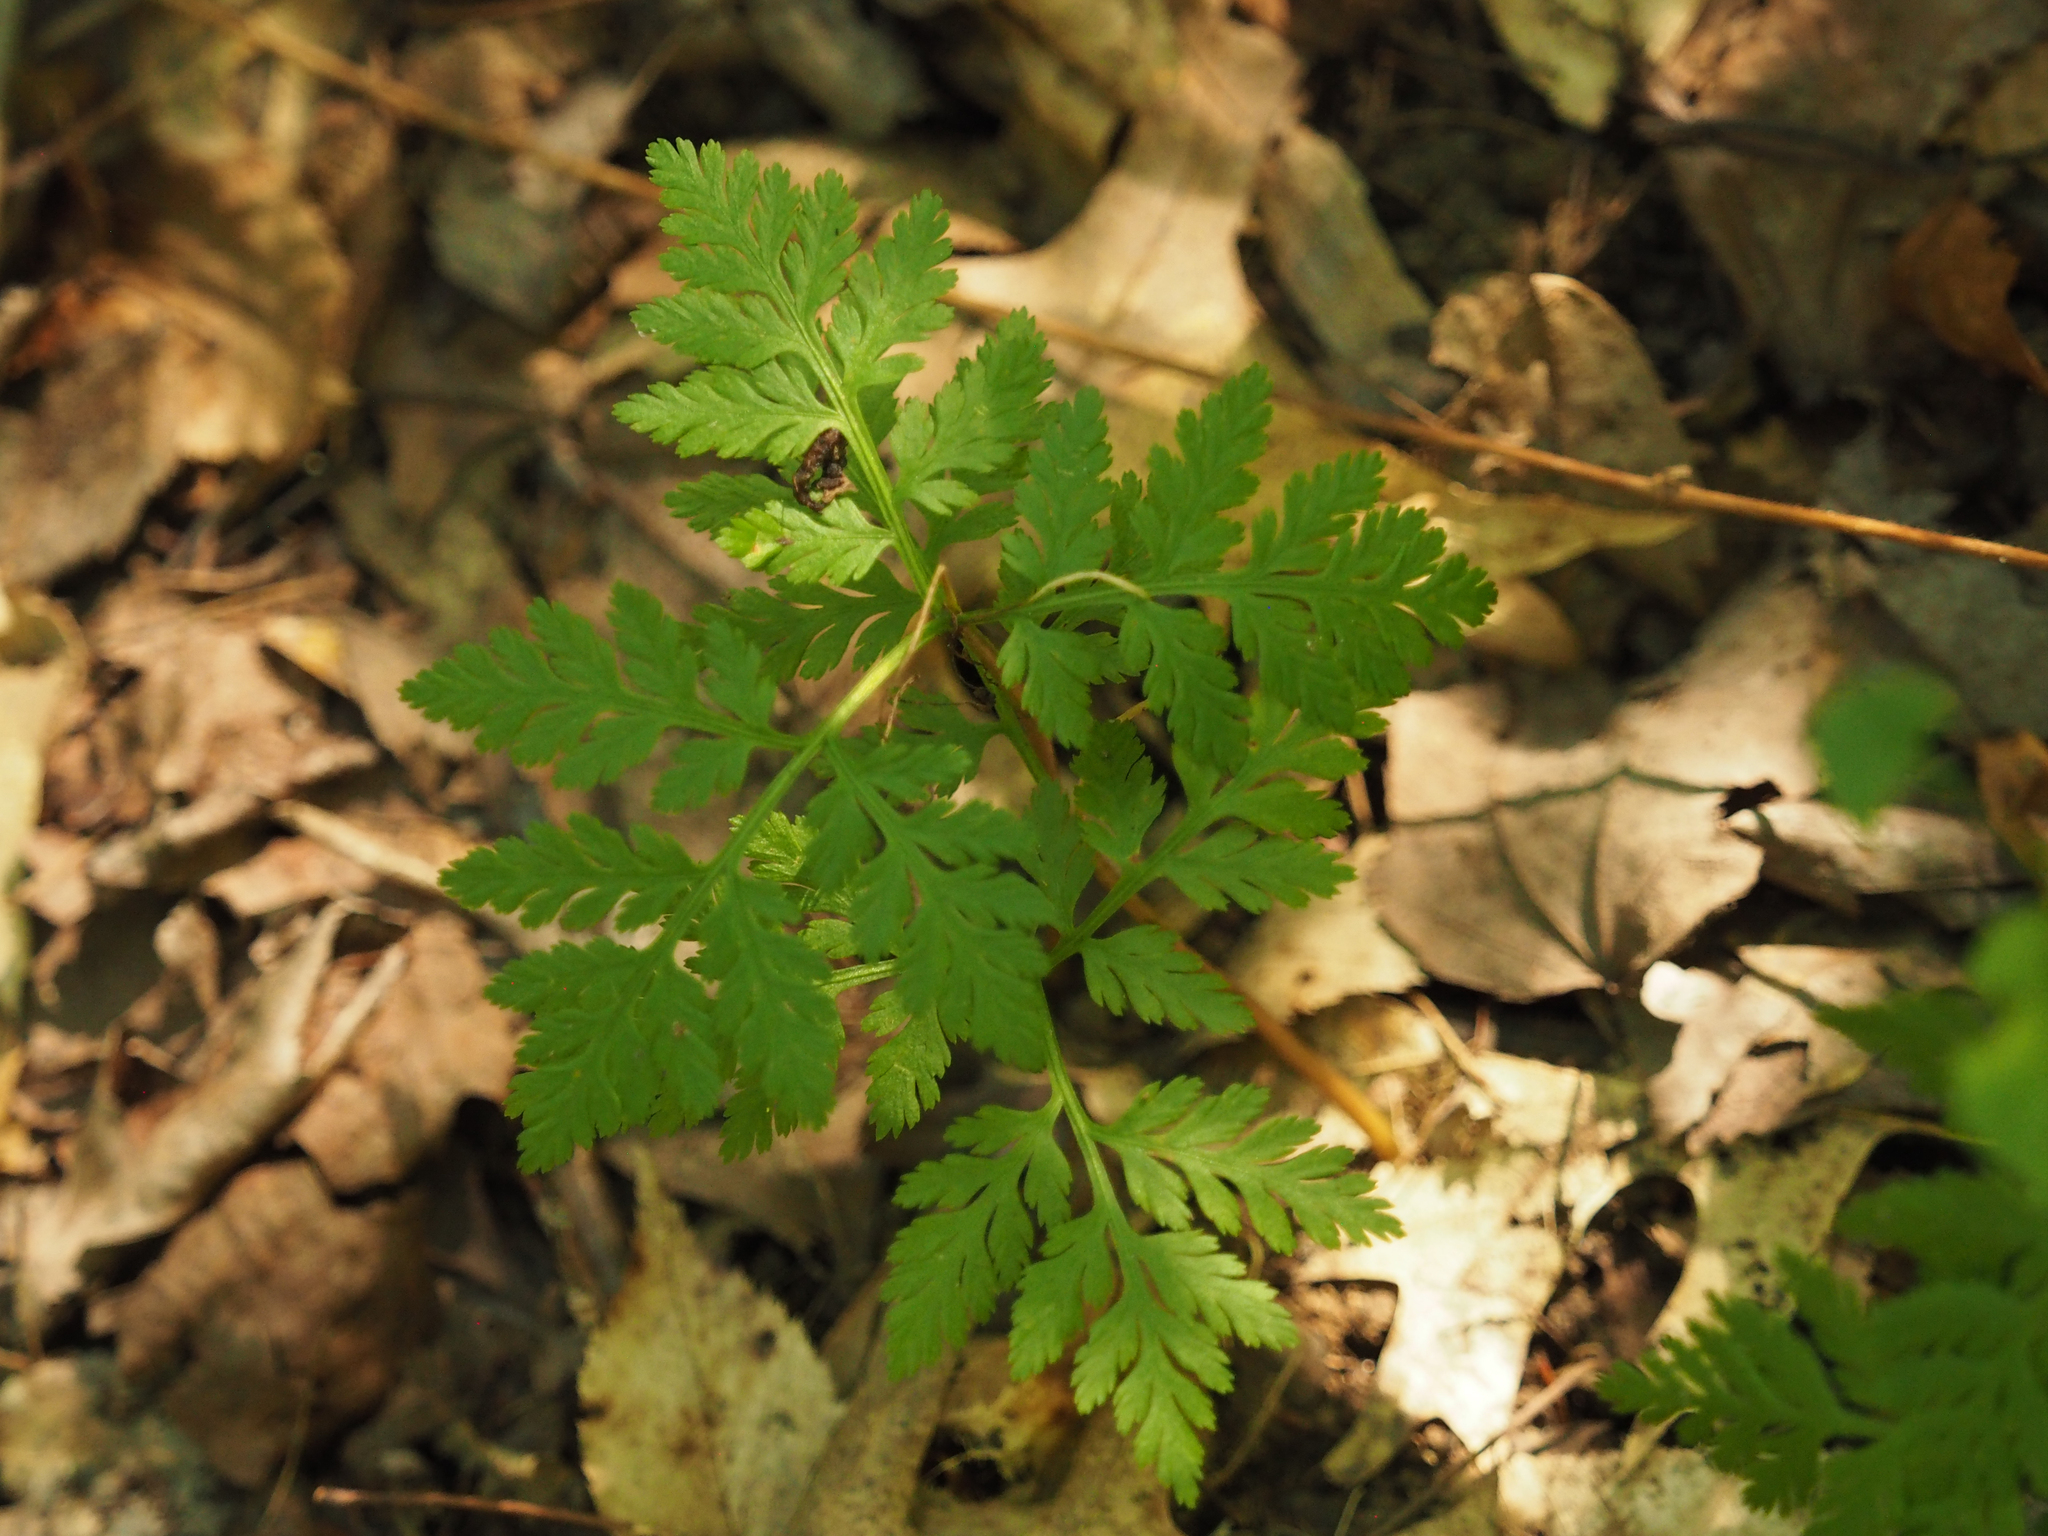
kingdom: Plantae
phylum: Tracheophyta
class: Polypodiopsida
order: Ophioglossales
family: Ophioglossaceae
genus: Botrypus
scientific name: Botrypus virginianus
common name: Common grapefern
